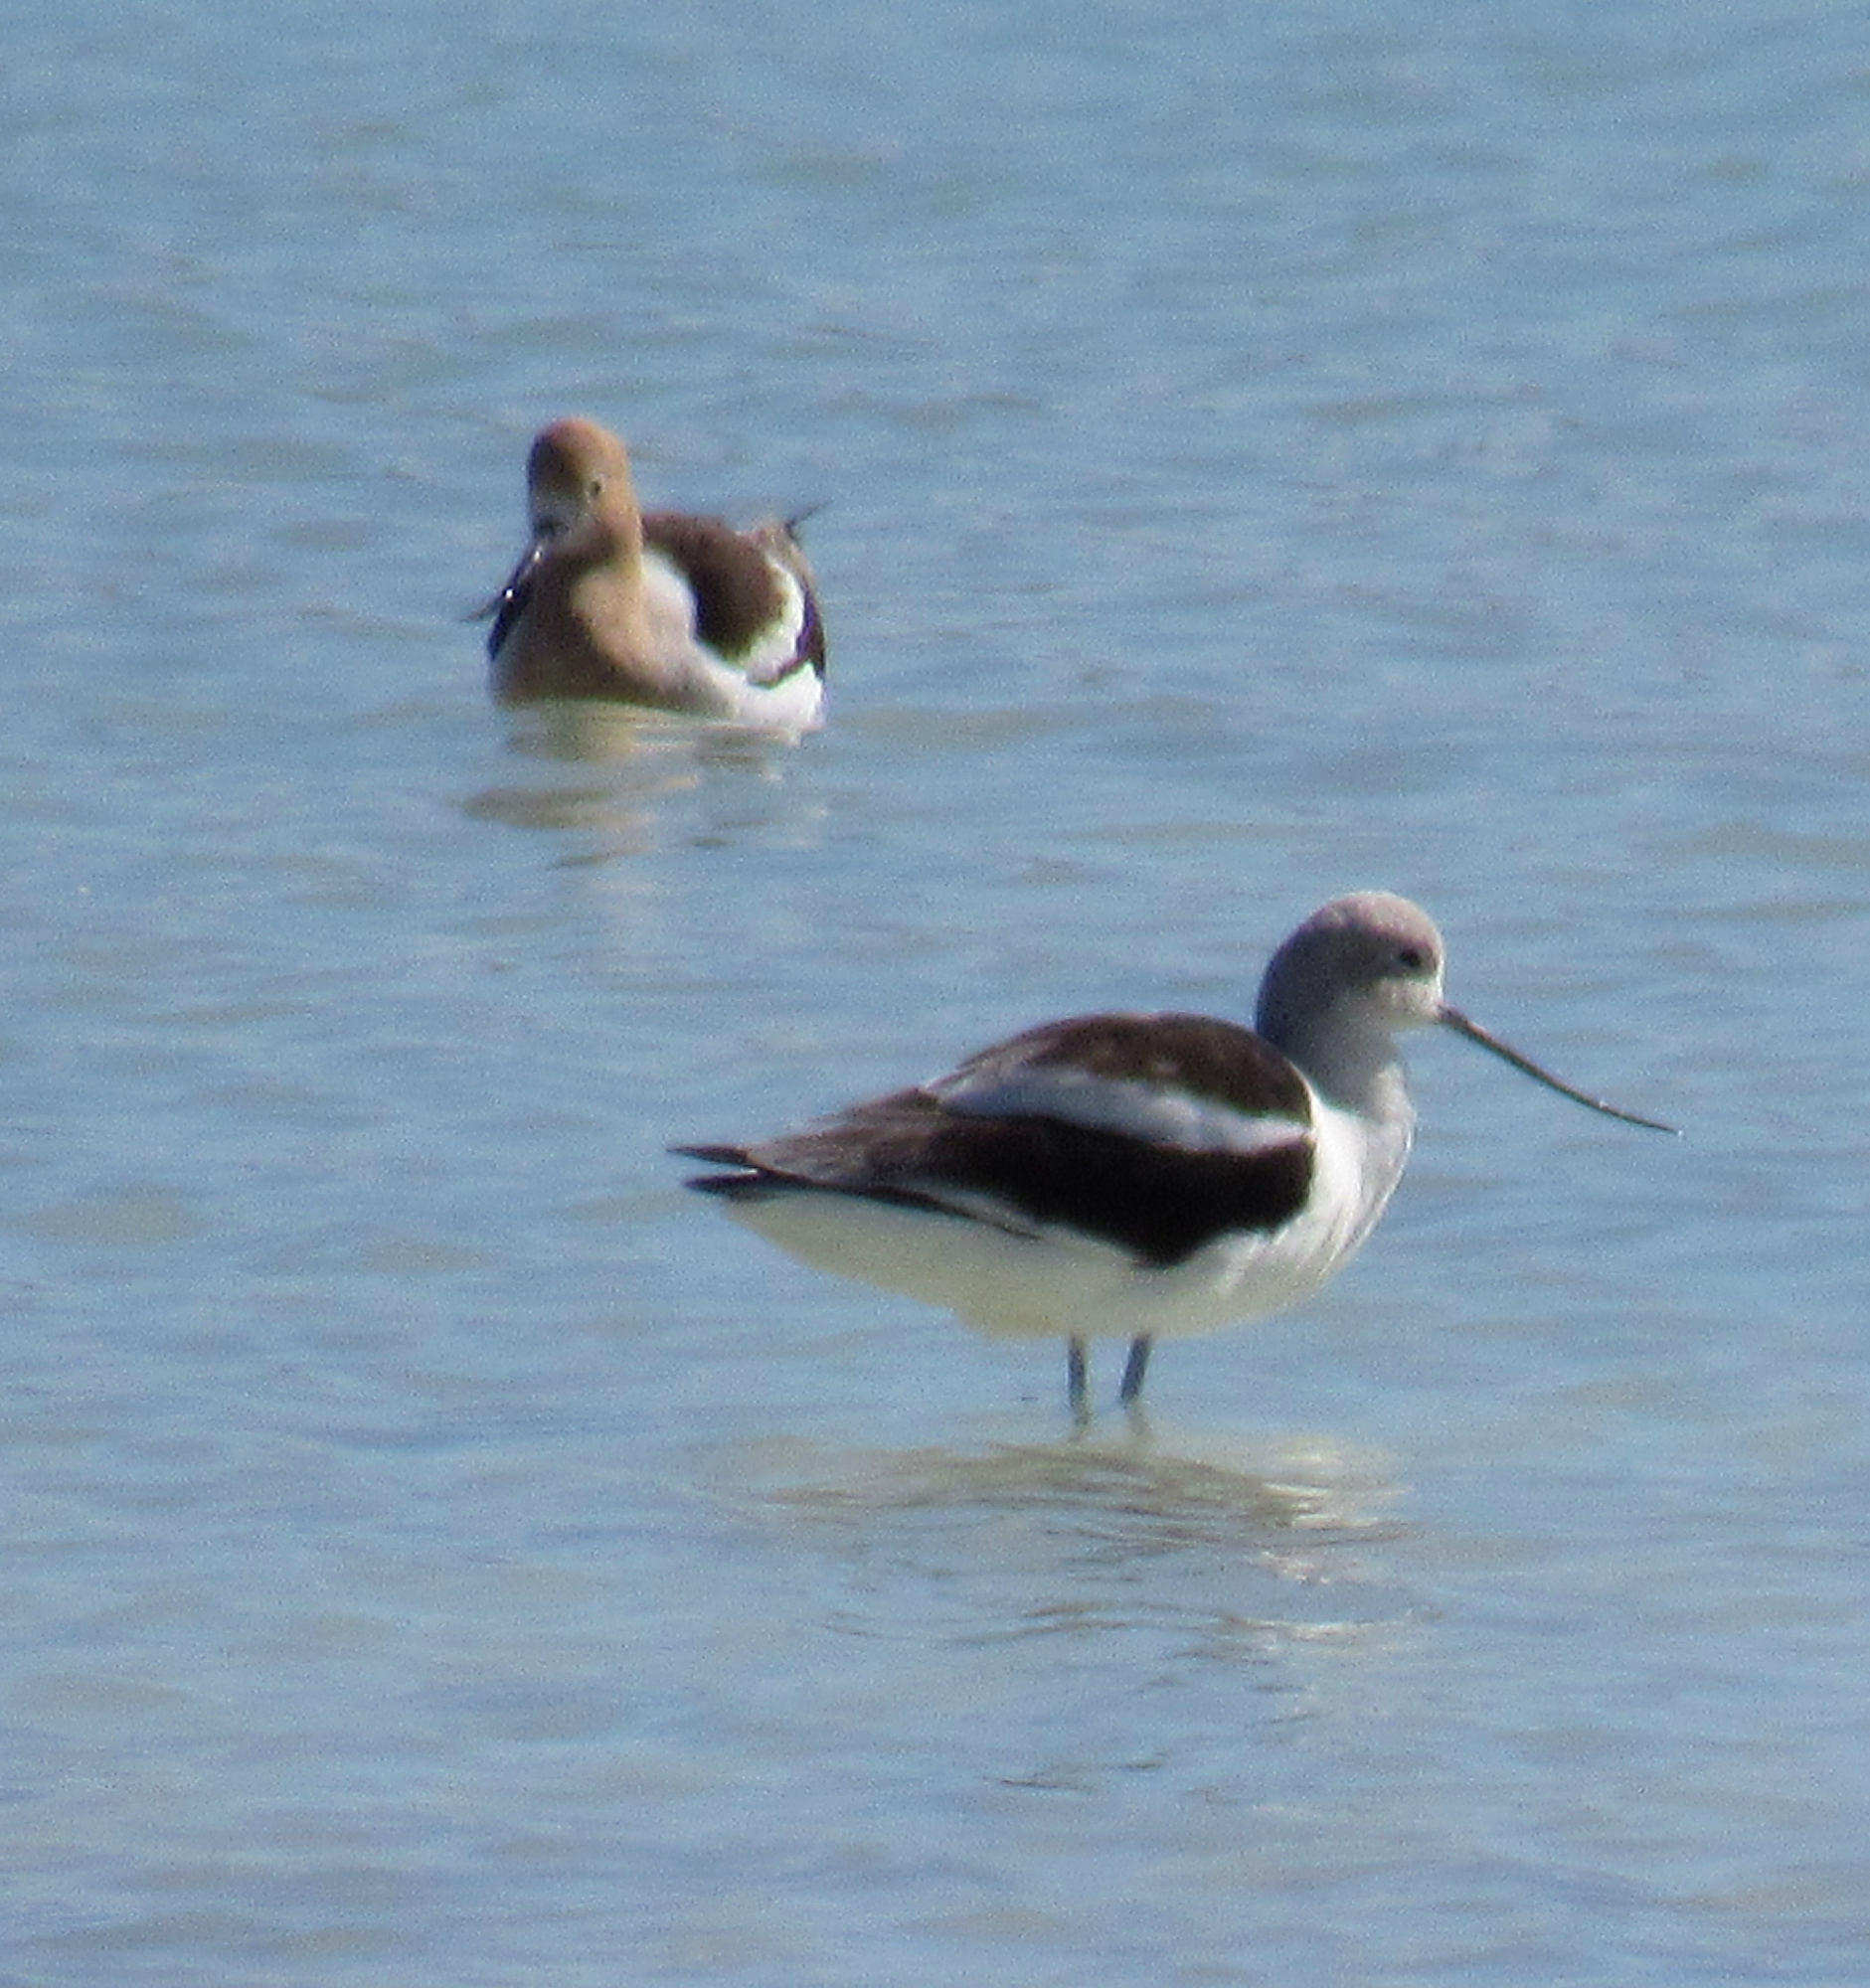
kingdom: Animalia
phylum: Chordata
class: Aves
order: Charadriiformes
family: Recurvirostridae
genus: Recurvirostra
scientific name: Recurvirostra americana
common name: American avocet
